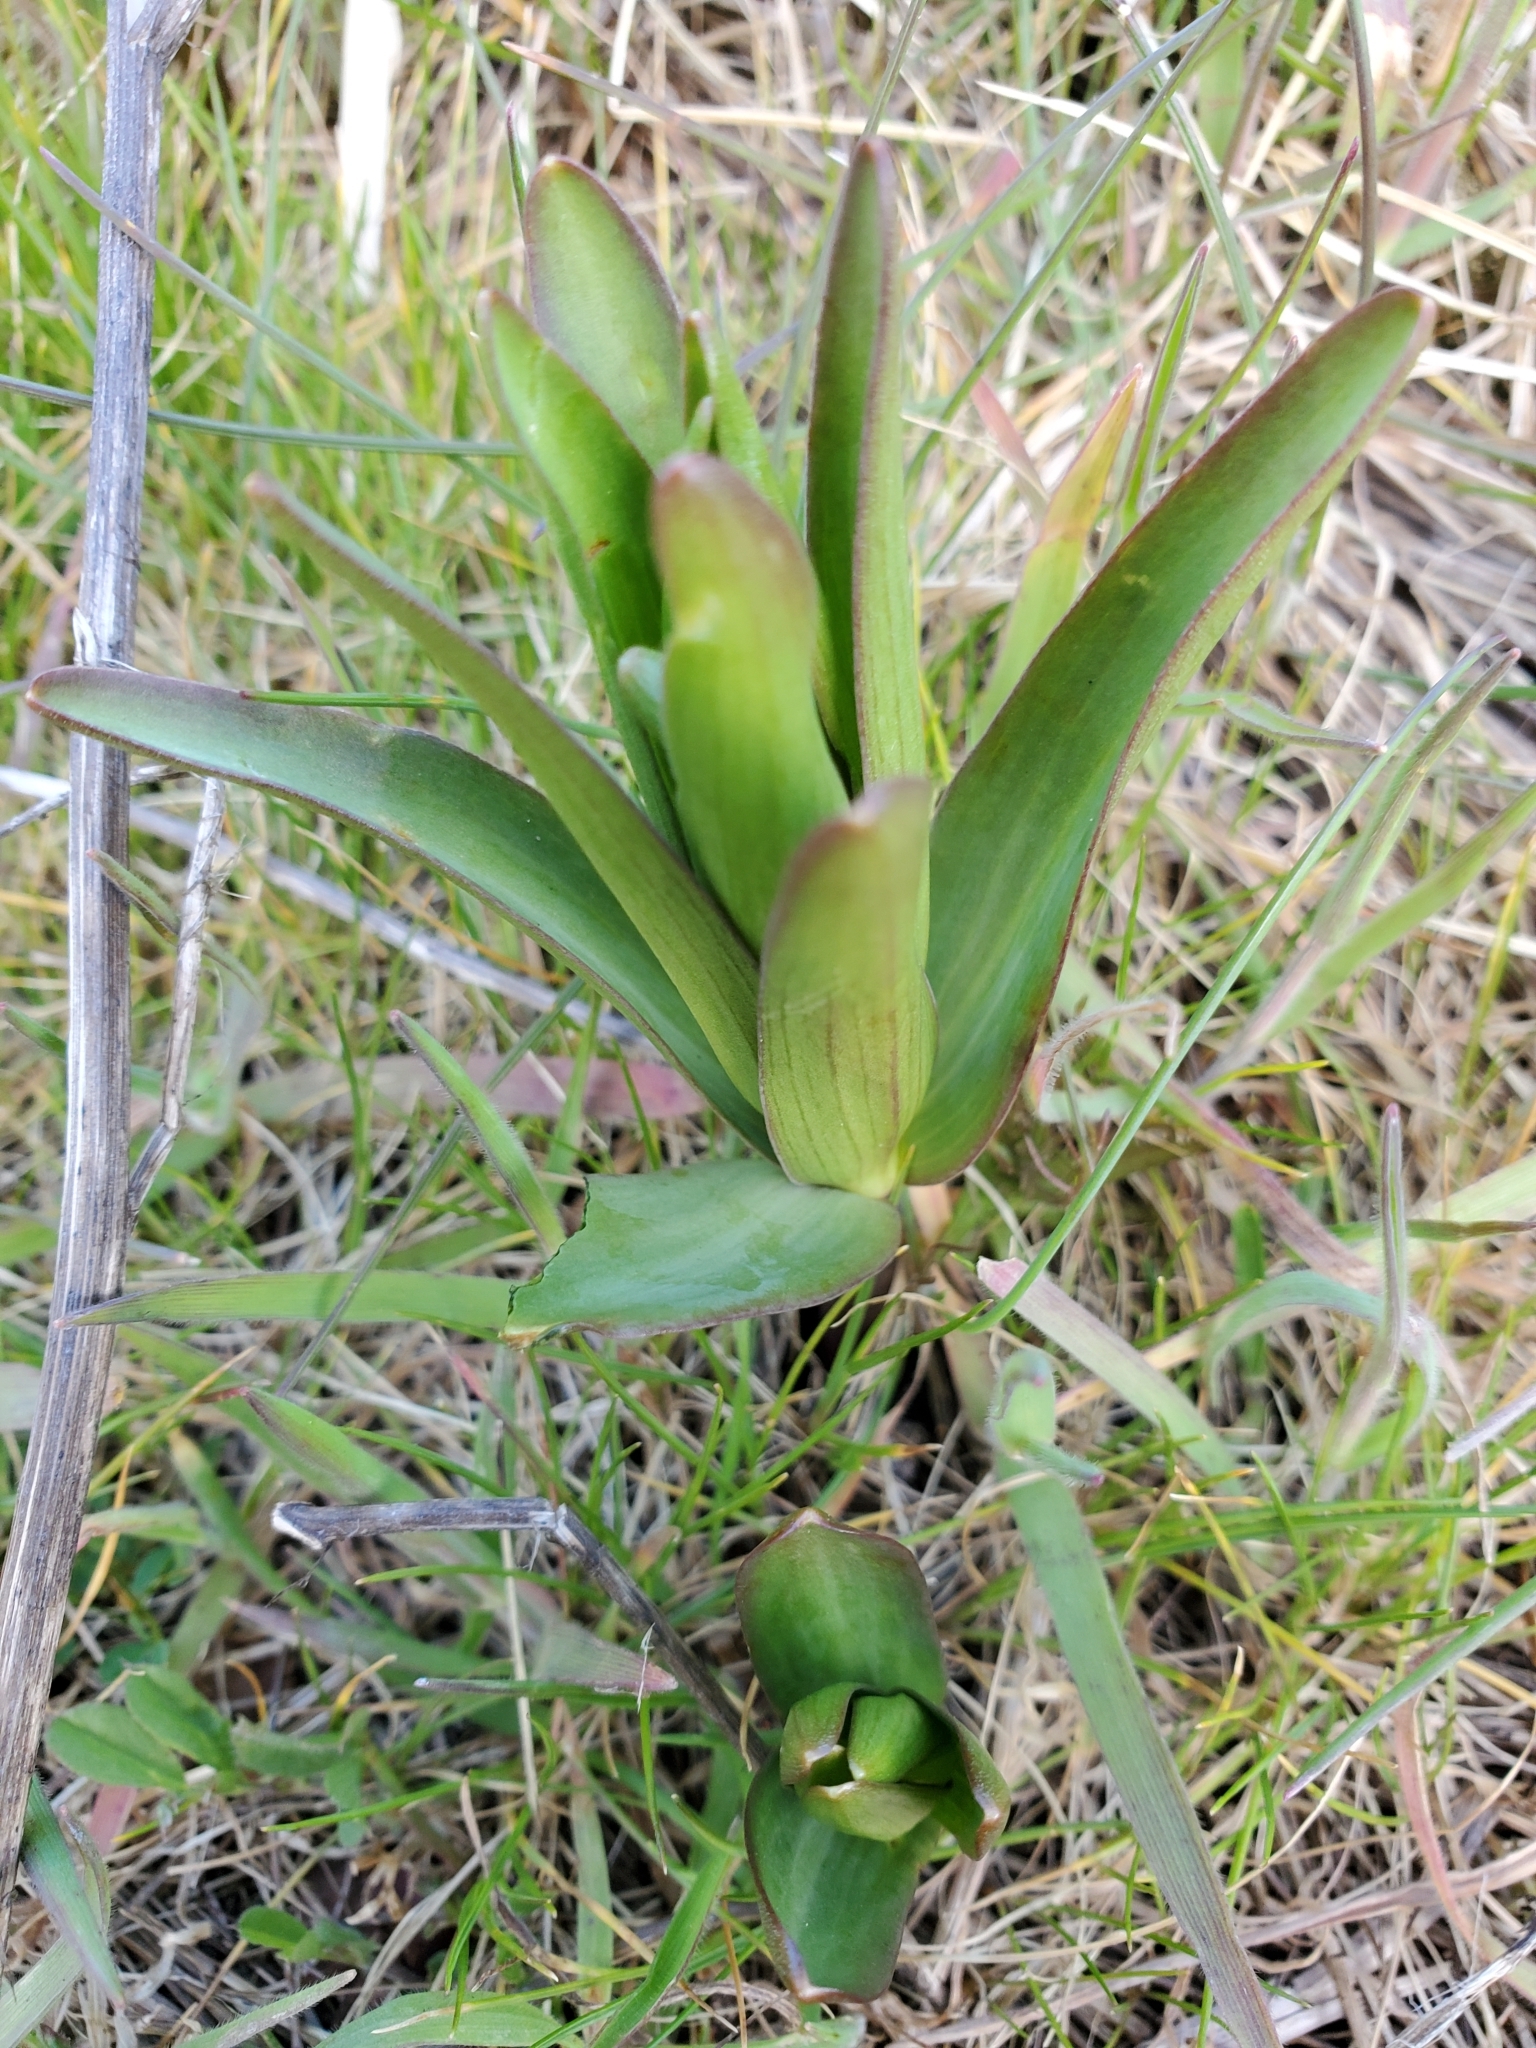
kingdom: Plantae
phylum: Tracheophyta
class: Liliopsida
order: Liliales
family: Liliaceae
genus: Fritillaria
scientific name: Fritillaria affinis
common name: Ojai fritillary
